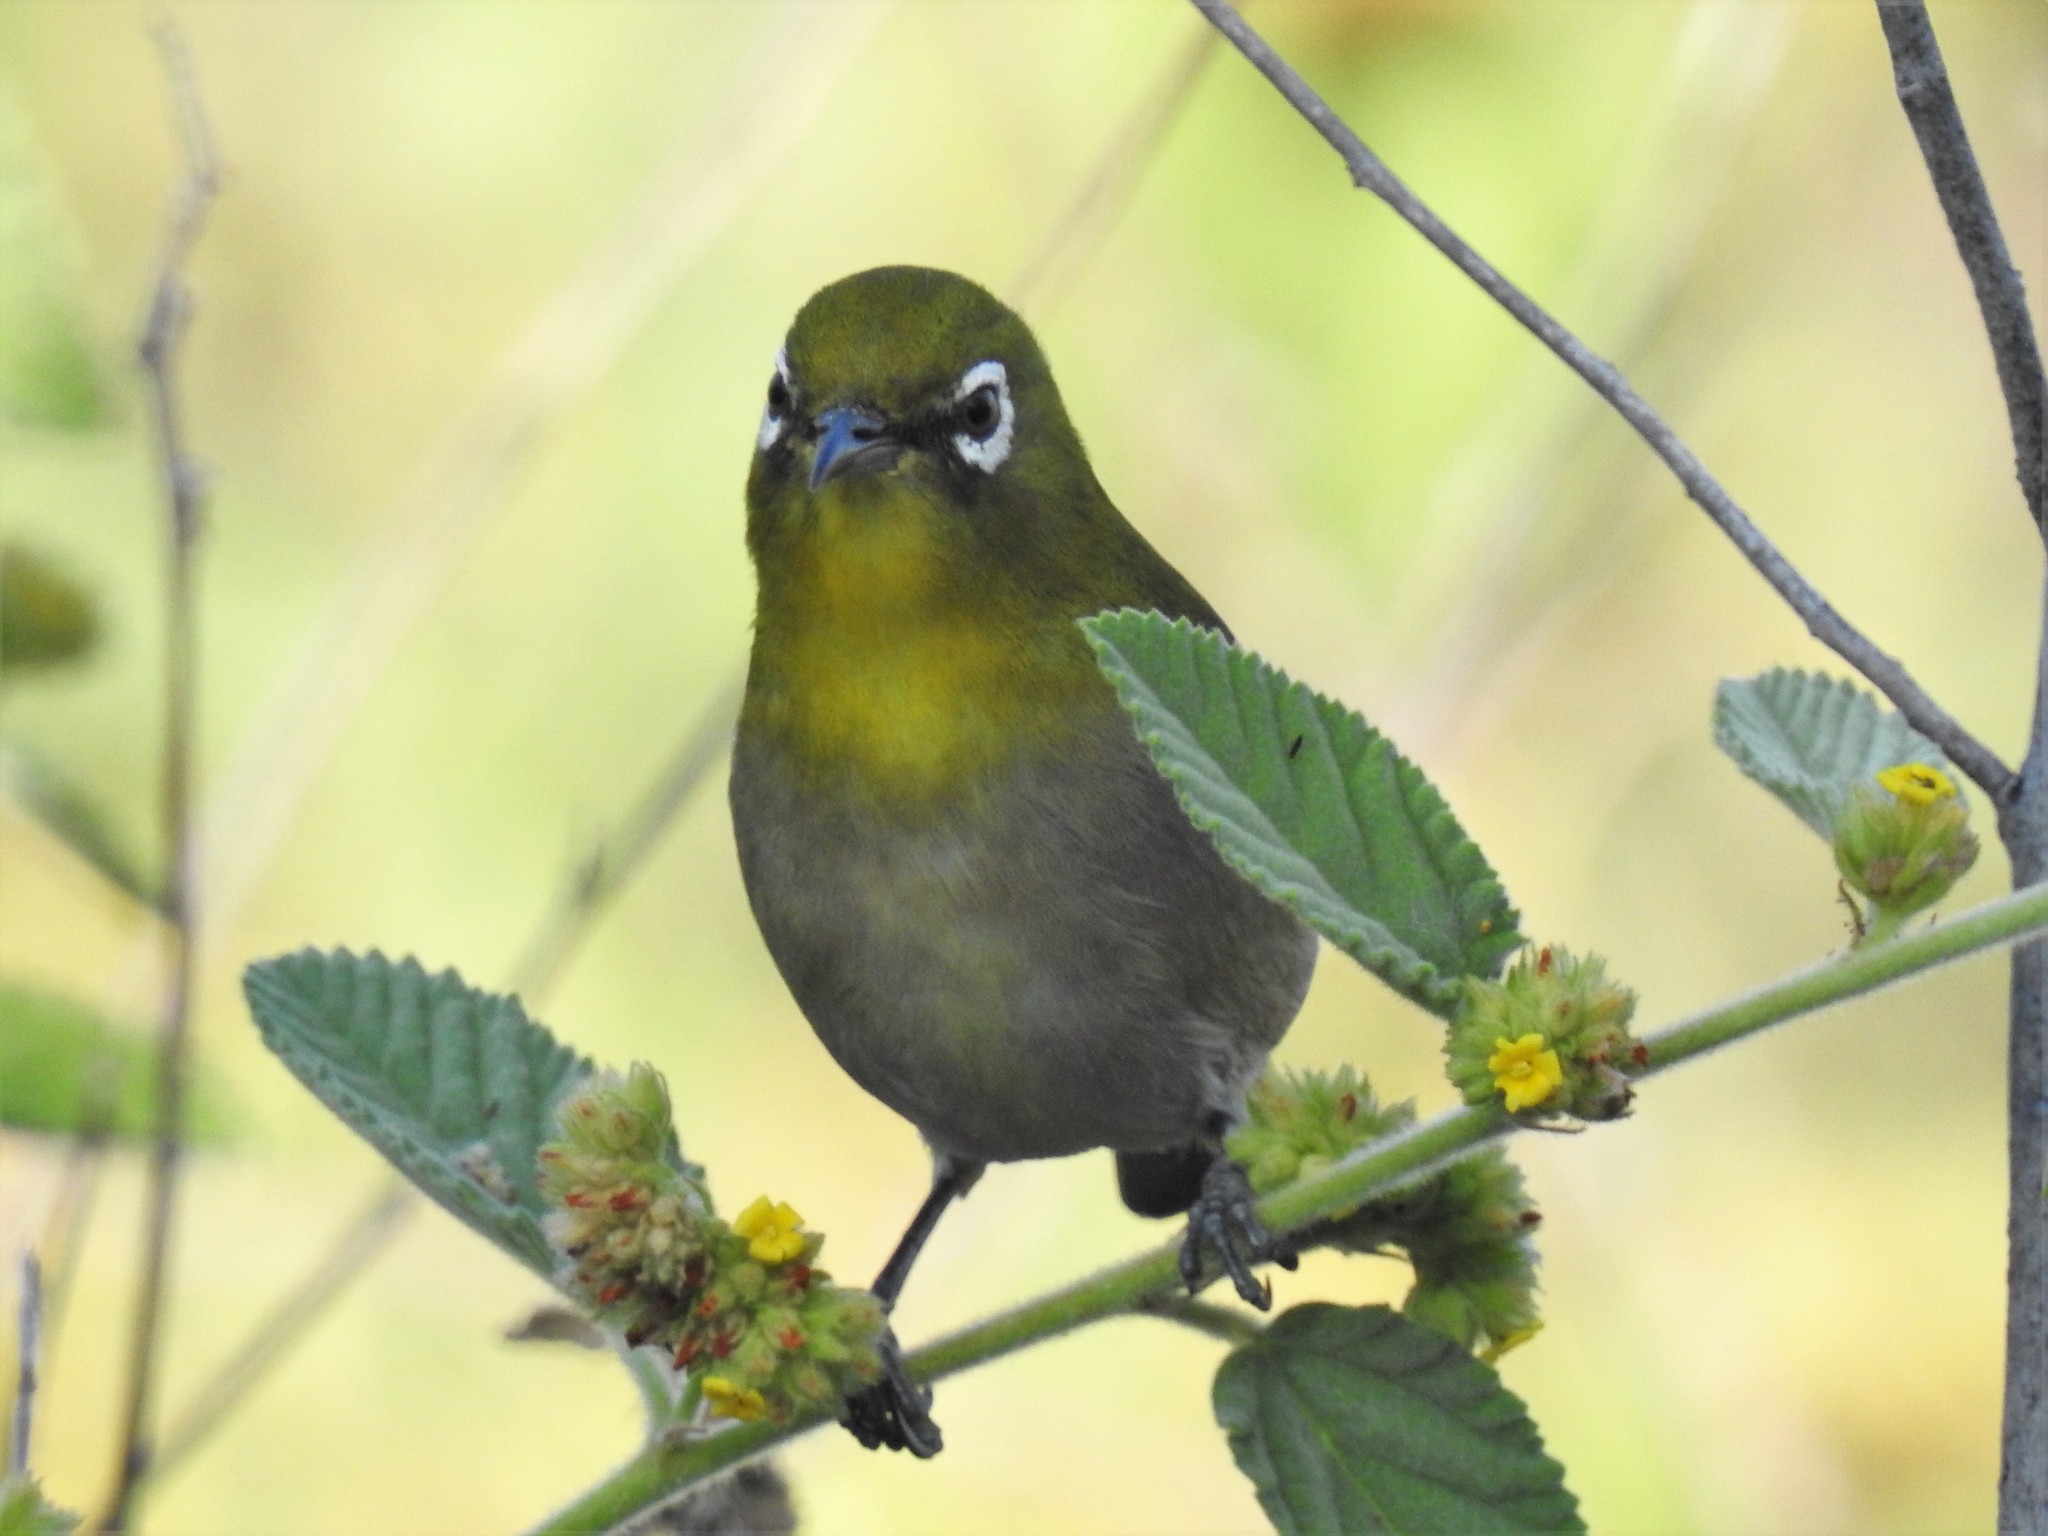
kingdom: Animalia
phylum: Chordata
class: Aves
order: Passeriformes
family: Zosteropidae
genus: Zosterops
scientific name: Zosterops japonicus
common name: Japanese white-eye
